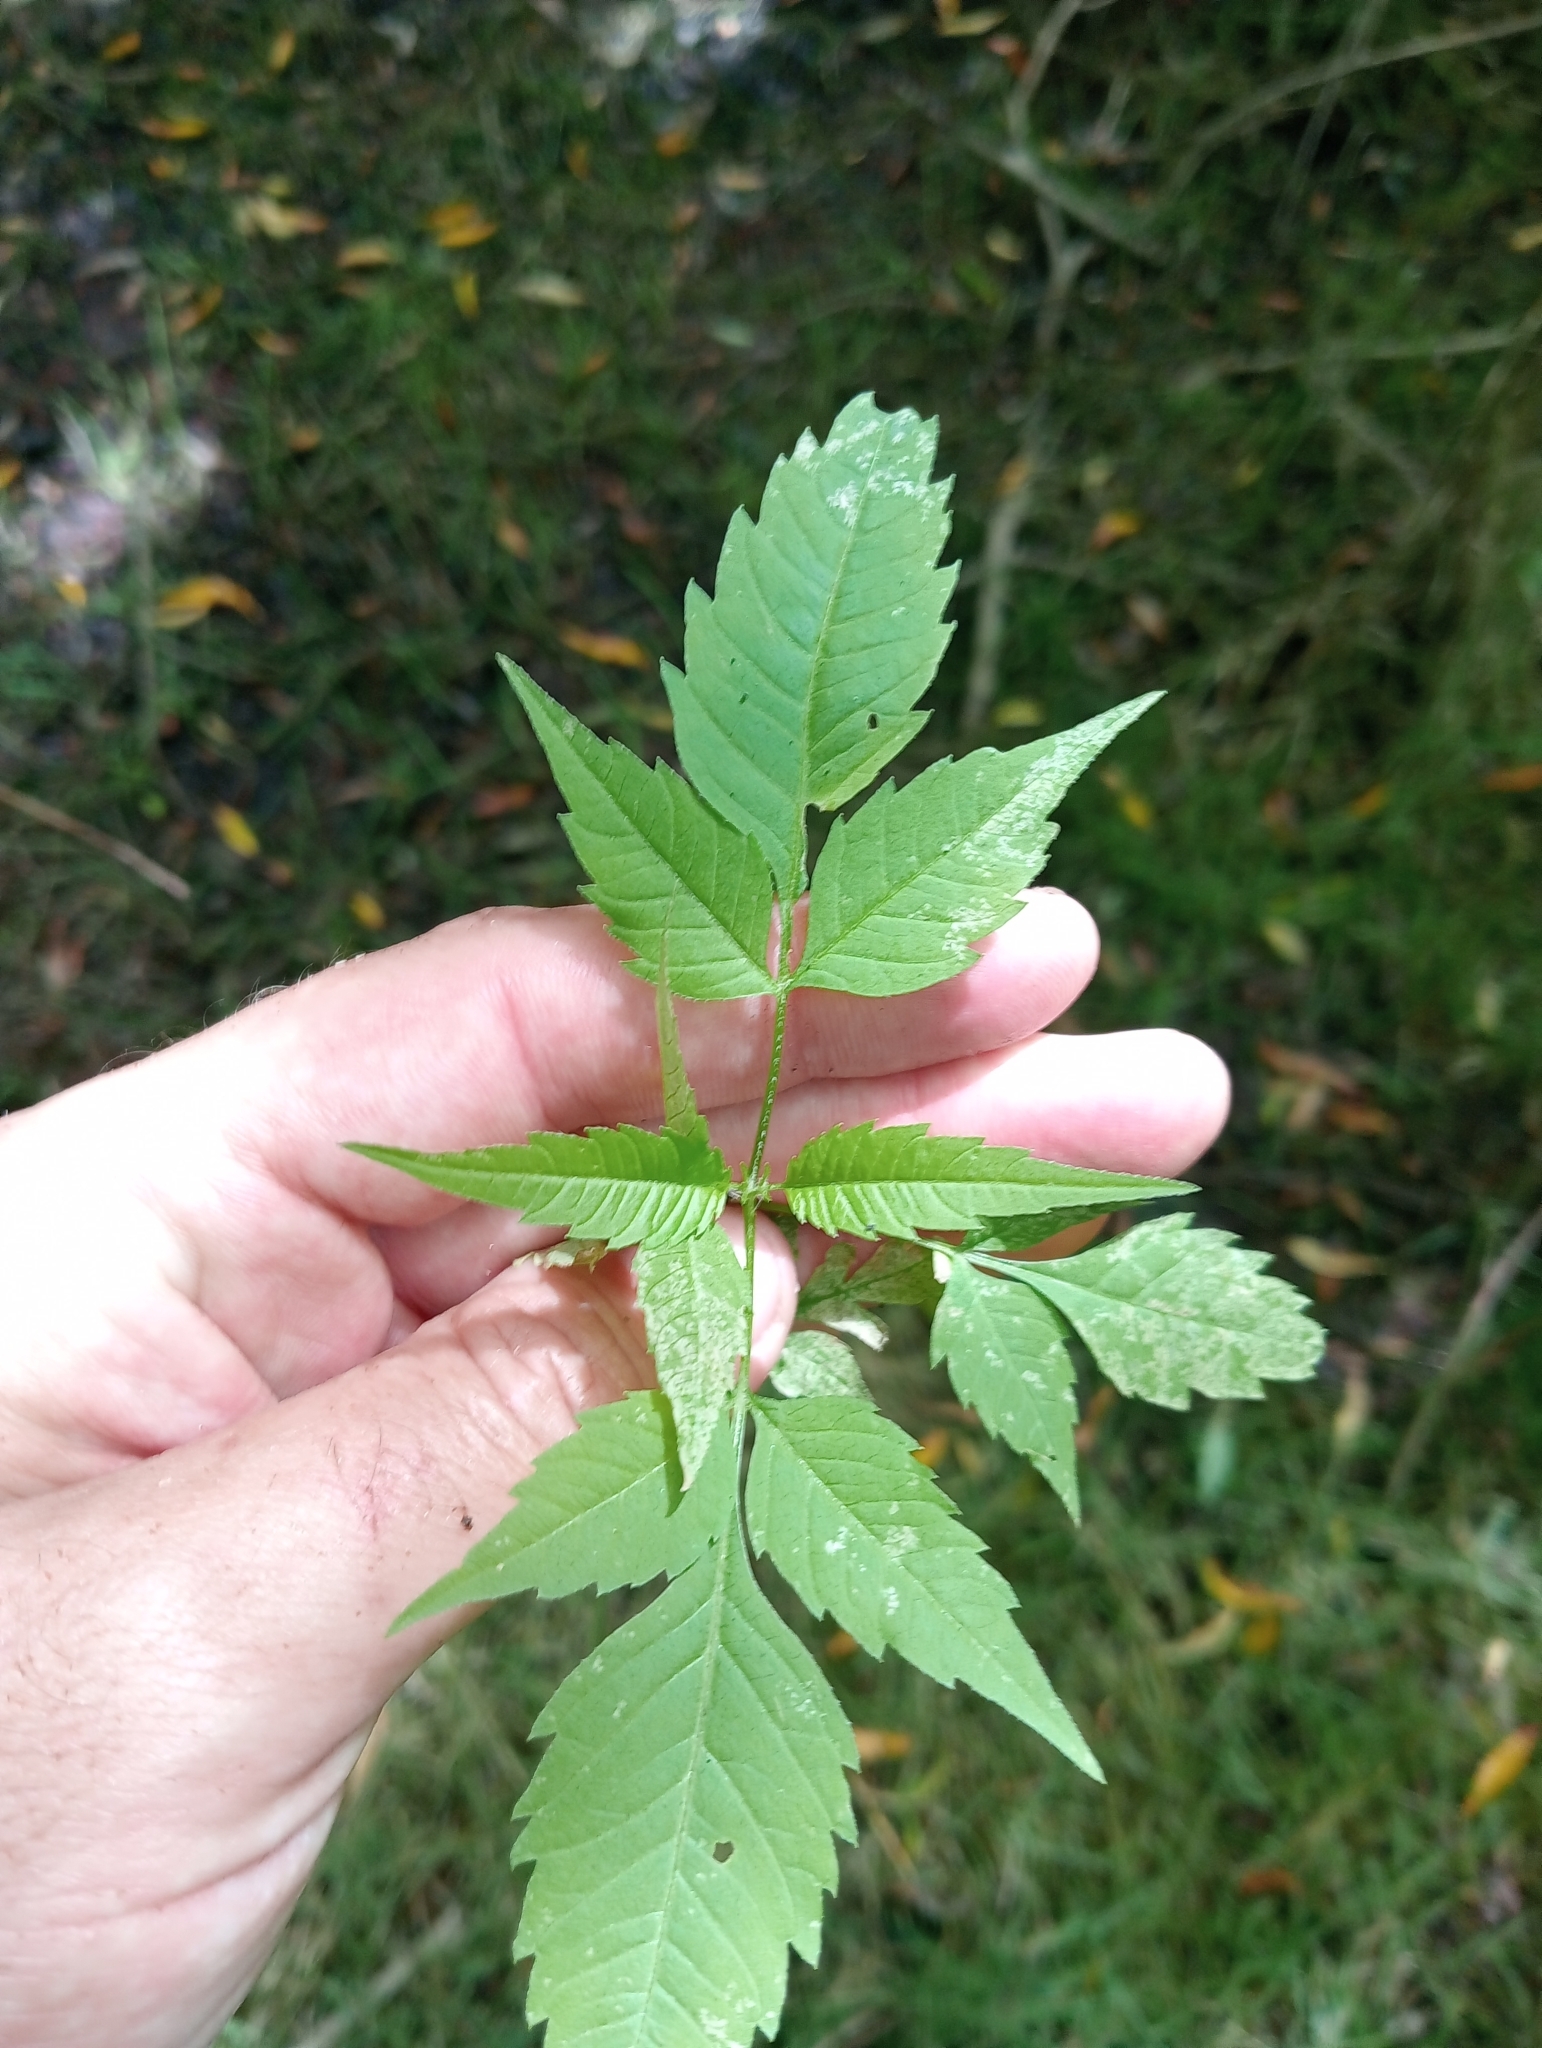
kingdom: Plantae
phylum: Tracheophyta
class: Magnoliopsida
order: Asterales
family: Asteraceae
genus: Bidens
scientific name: Bidens frondosa
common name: Beggarticks
